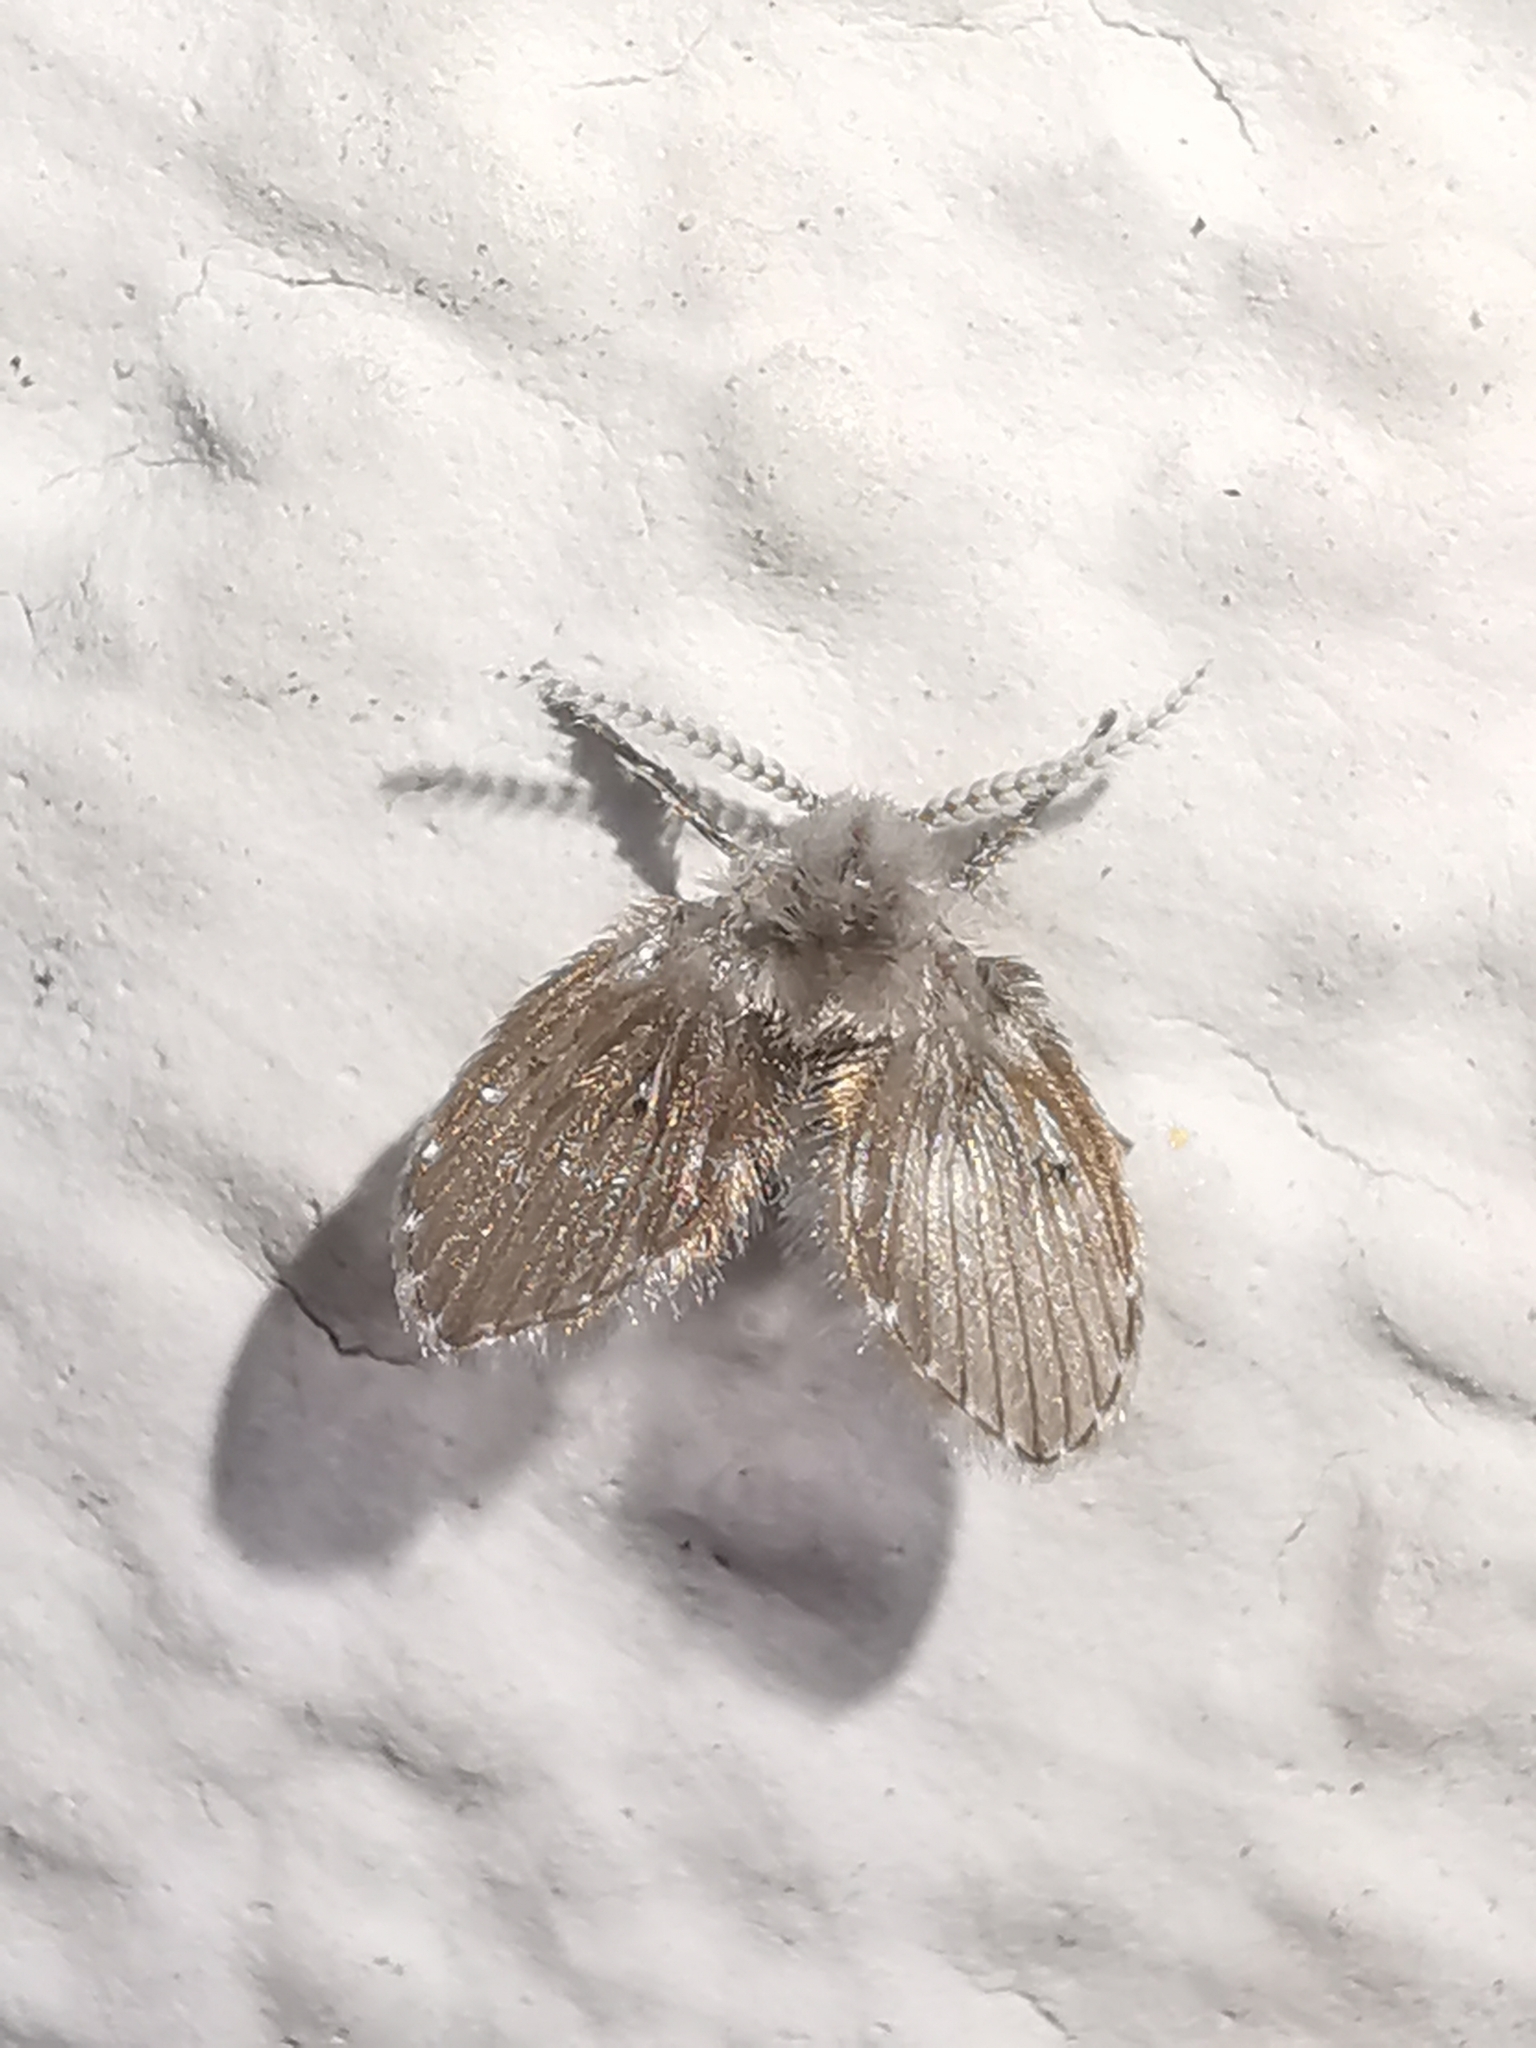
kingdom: Animalia
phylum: Arthropoda
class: Insecta
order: Diptera
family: Psychodidae
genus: Clogmia
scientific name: Clogmia albipunctatus
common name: White-spotted moth fly
